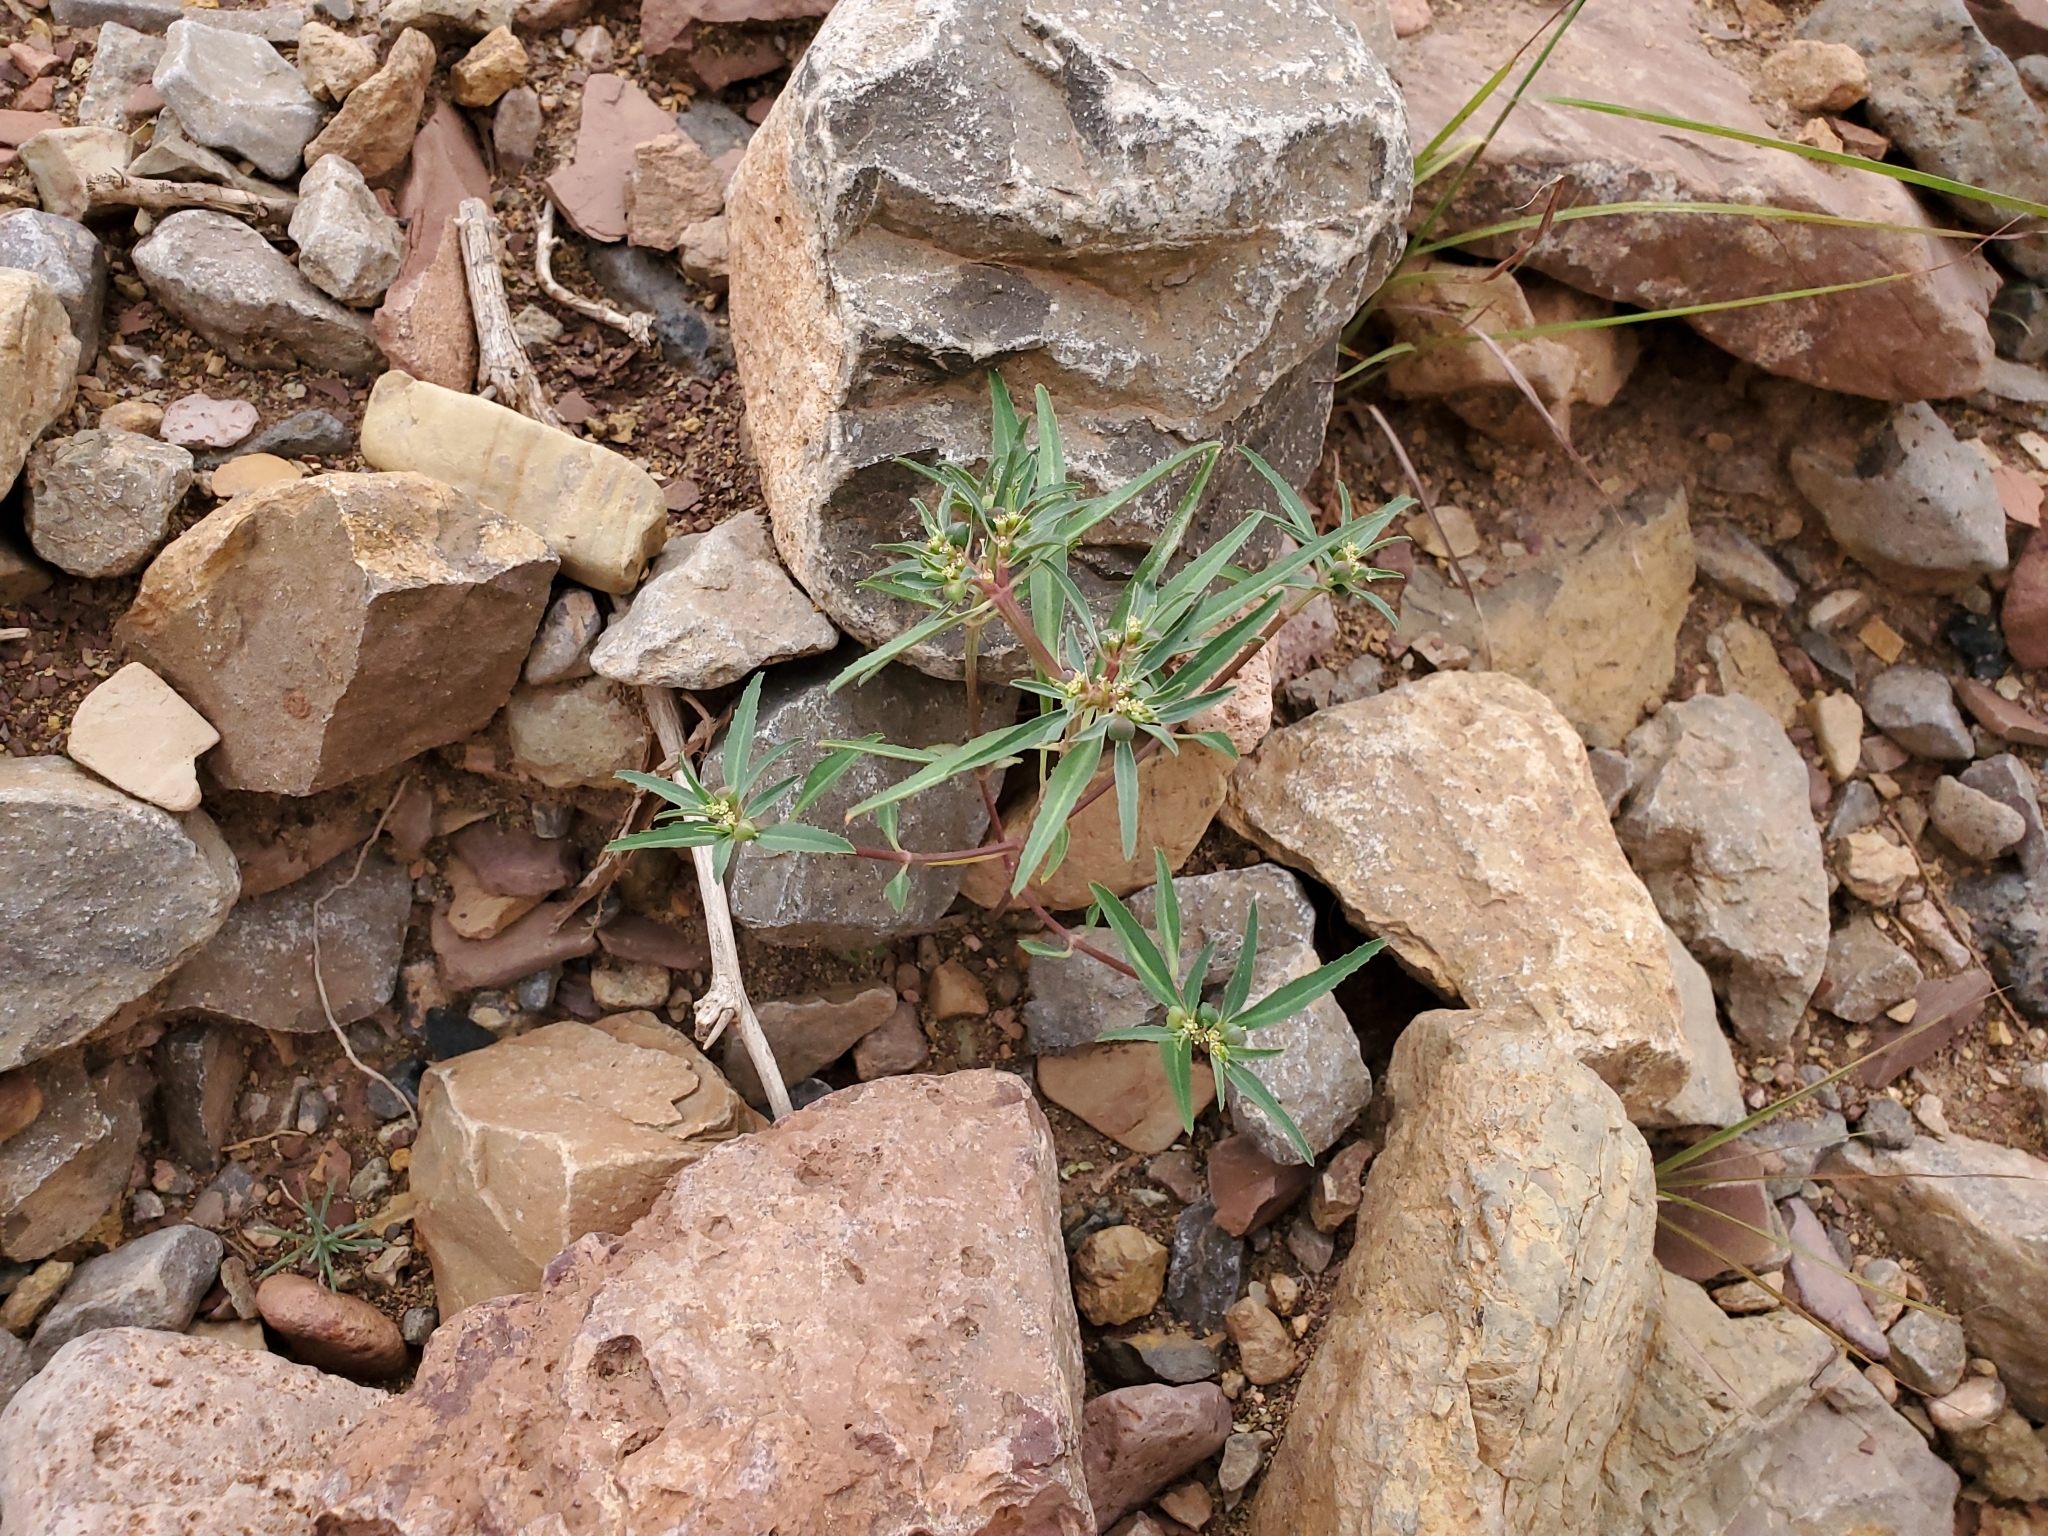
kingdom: Plantae
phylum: Tracheophyta
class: Magnoliopsida
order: Malpighiales
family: Euphorbiaceae
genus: Euphorbia
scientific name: Euphorbia exstipulata
